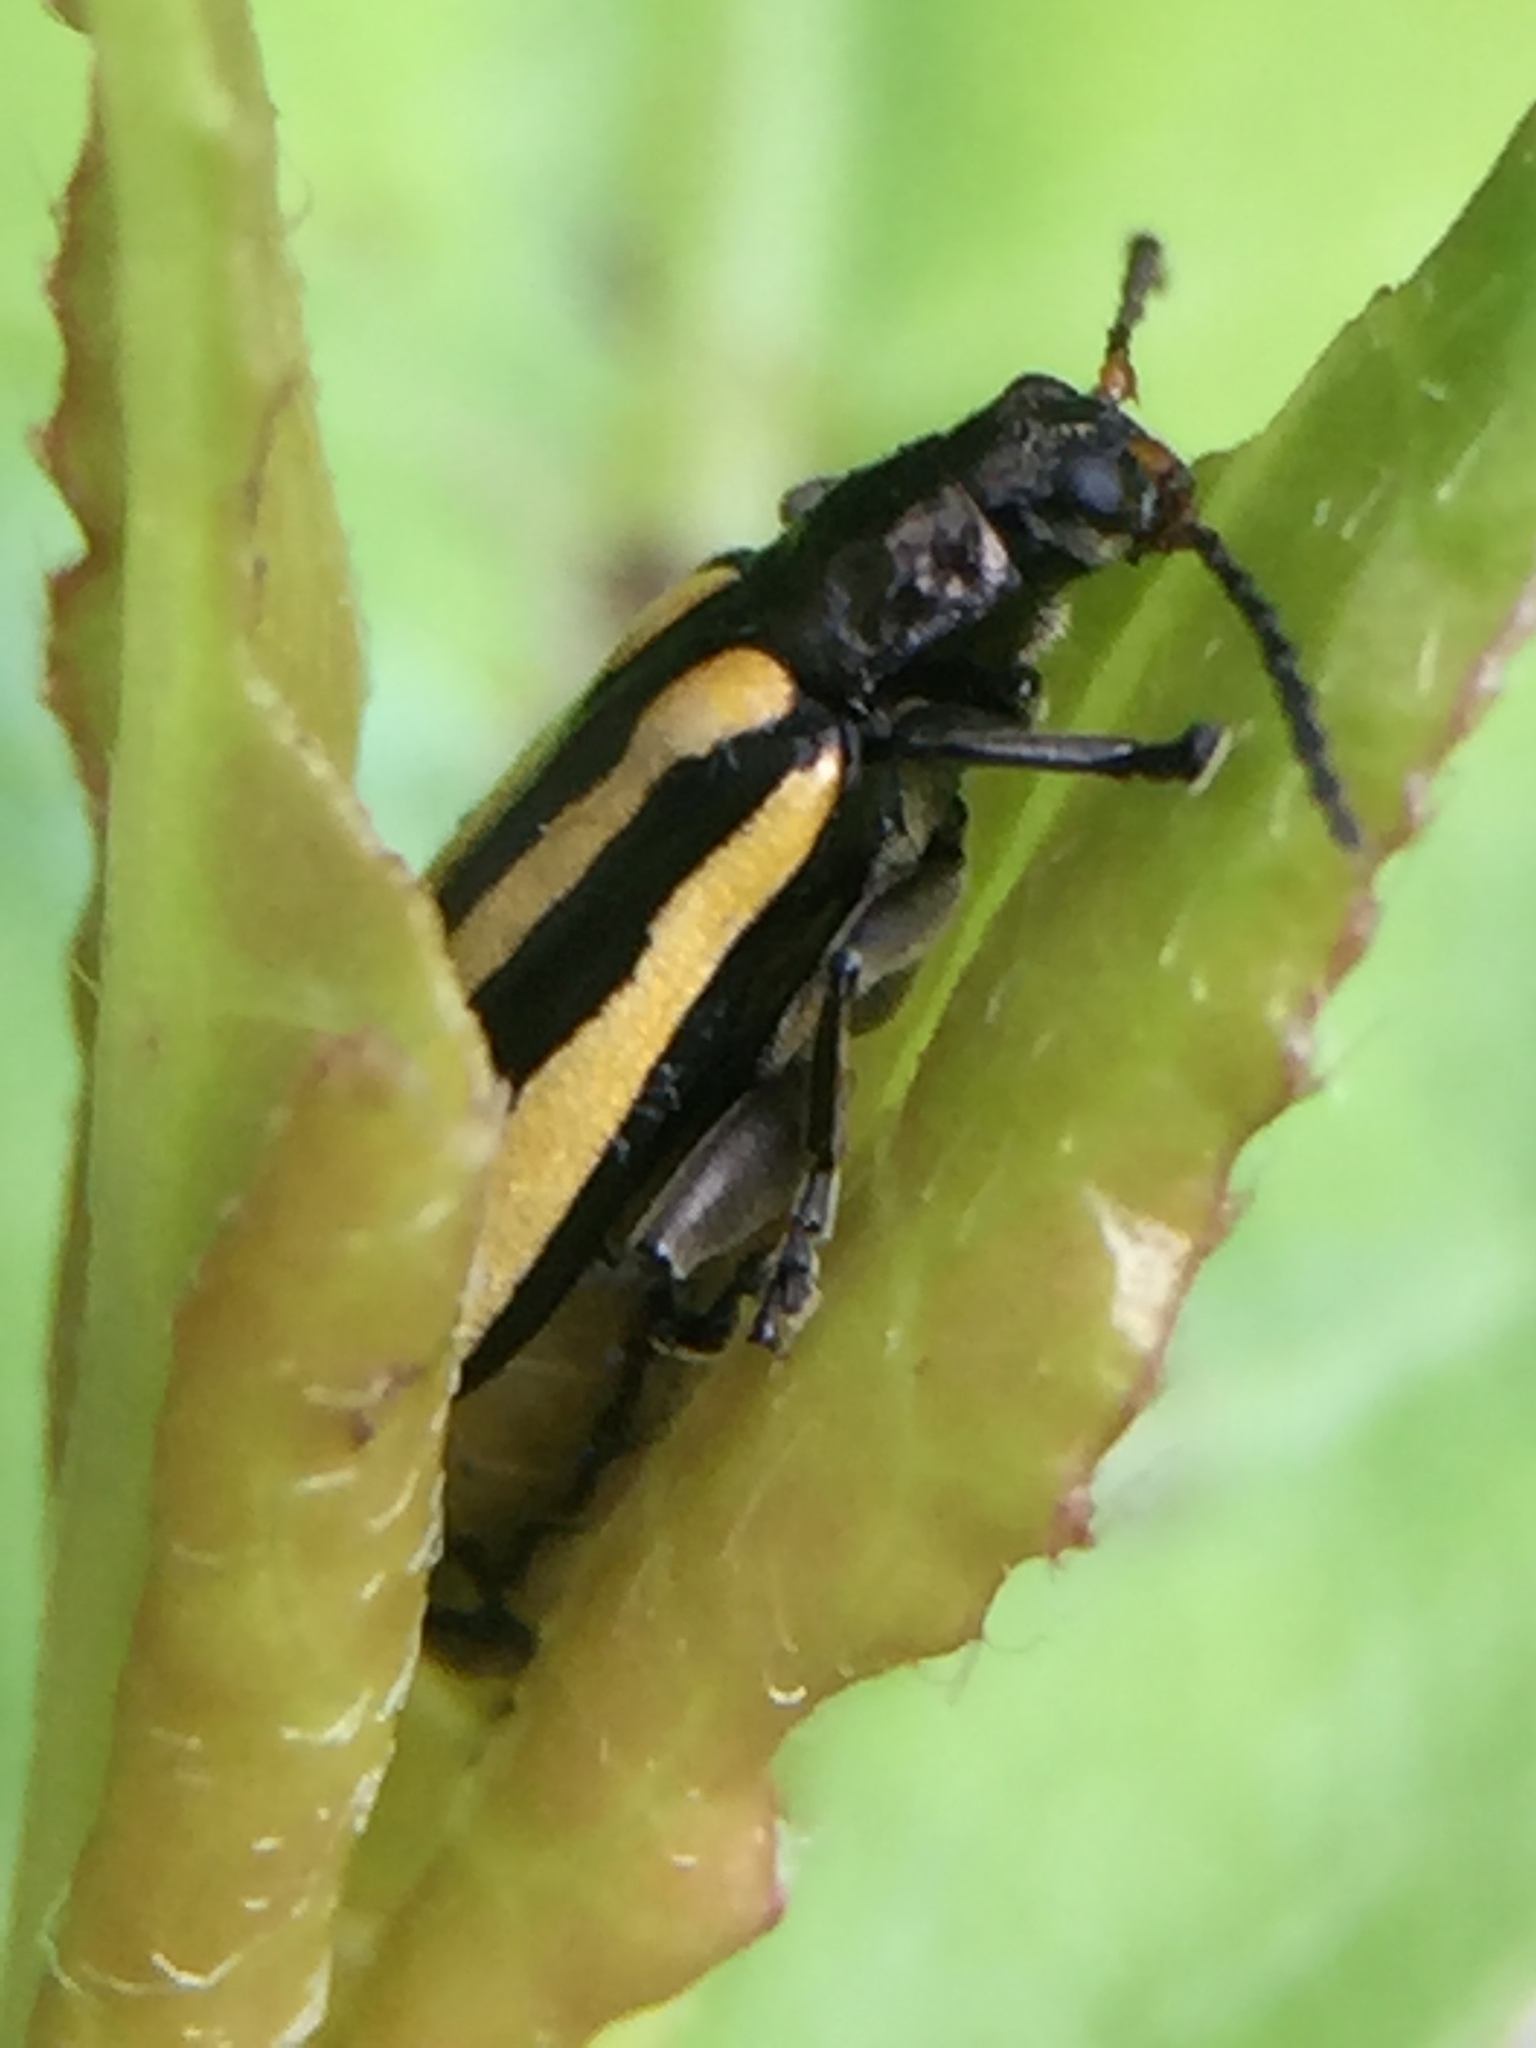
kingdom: Animalia
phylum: Arthropoda
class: Insecta
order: Coleoptera
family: Chrysomelidae
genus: Agasicles
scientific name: Agasicles hygrophila
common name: Alligatorweed flea beetle
